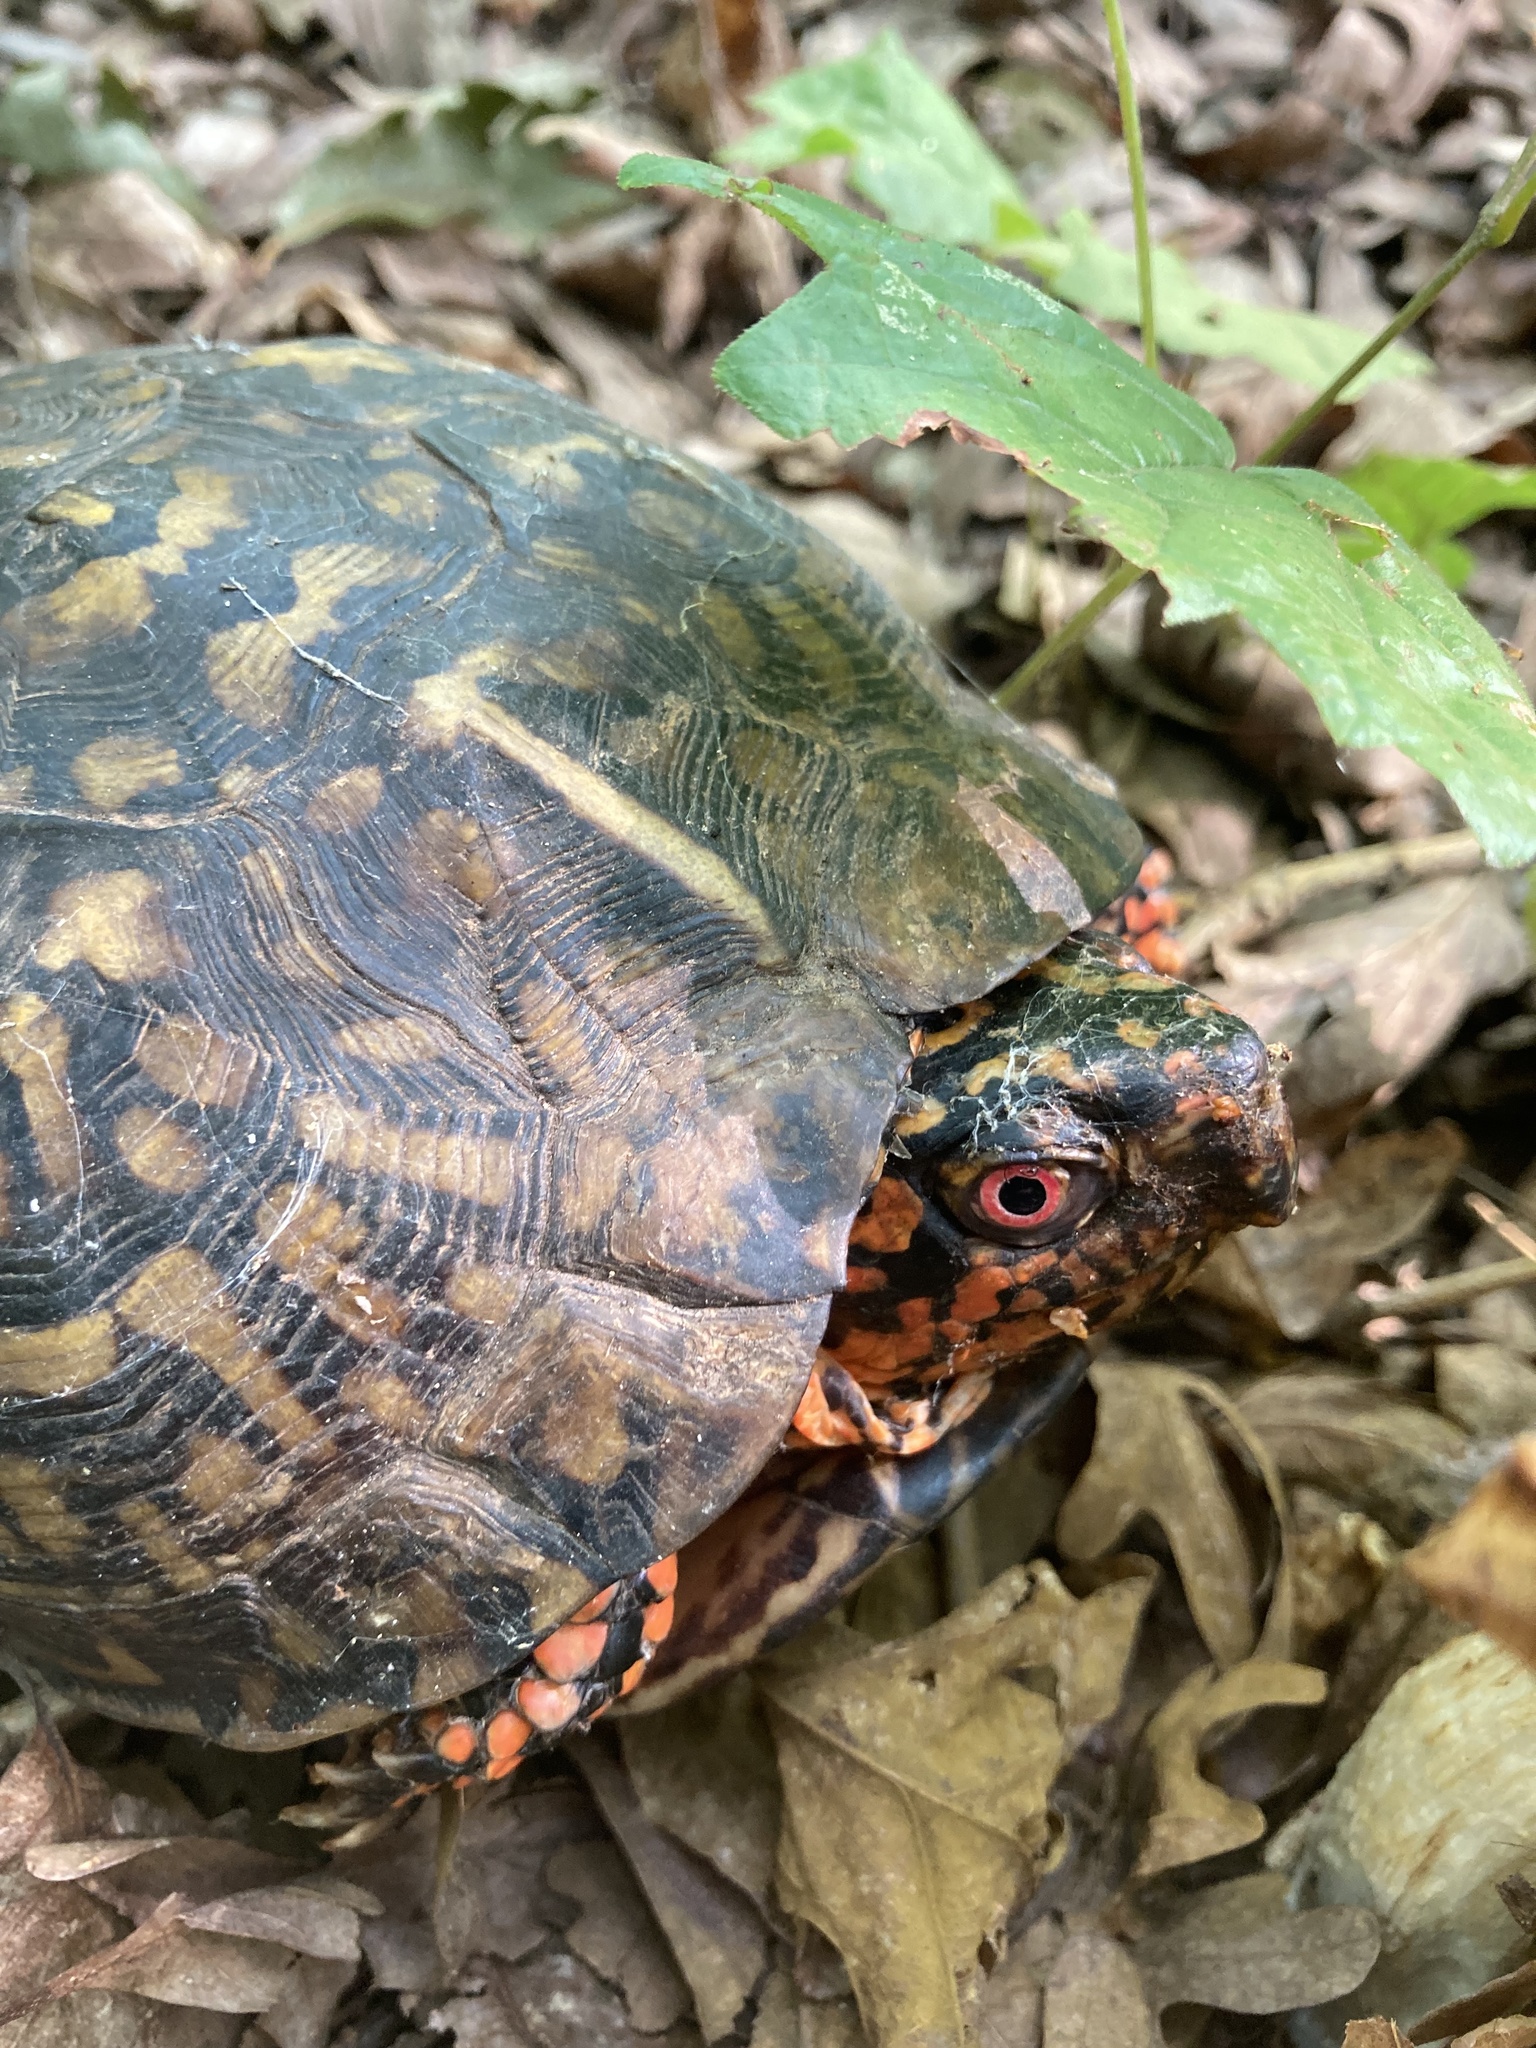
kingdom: Animalia
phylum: Chordata
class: Testudines
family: Emydidae
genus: Terrapene
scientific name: Terrapene carolina
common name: Common box turtle
